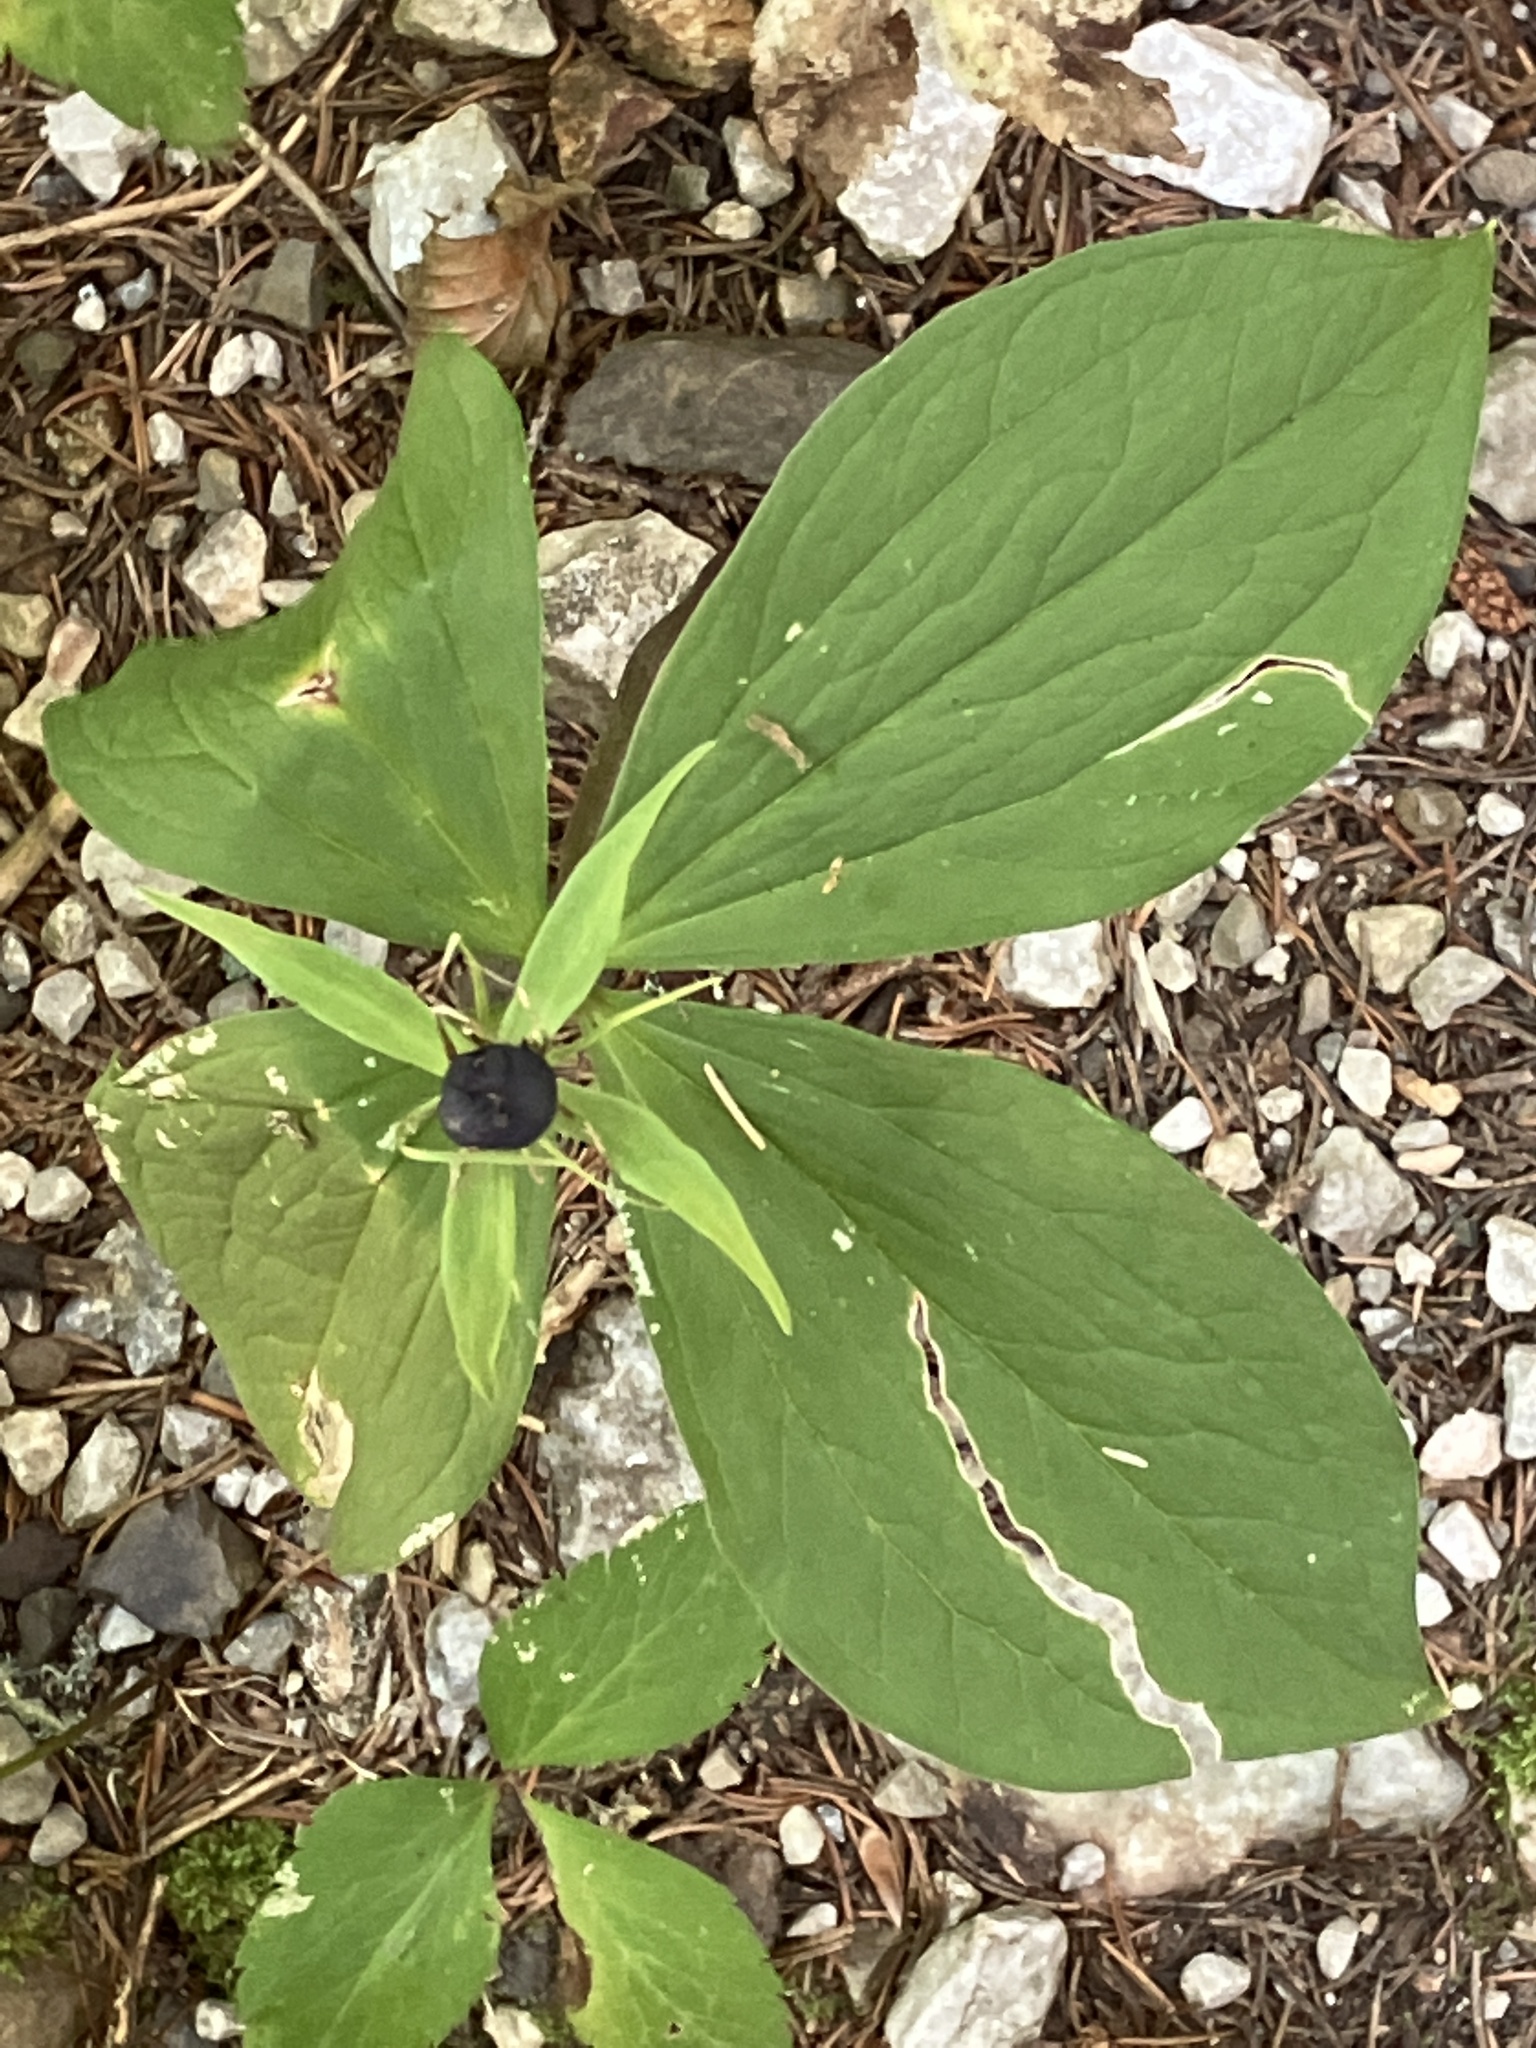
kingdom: Plantae
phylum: Tracheophyta
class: Liliopsida
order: Liliales
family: Melanthiaceae
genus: Paris
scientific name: Paris quadrifolia
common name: Herb-paris
